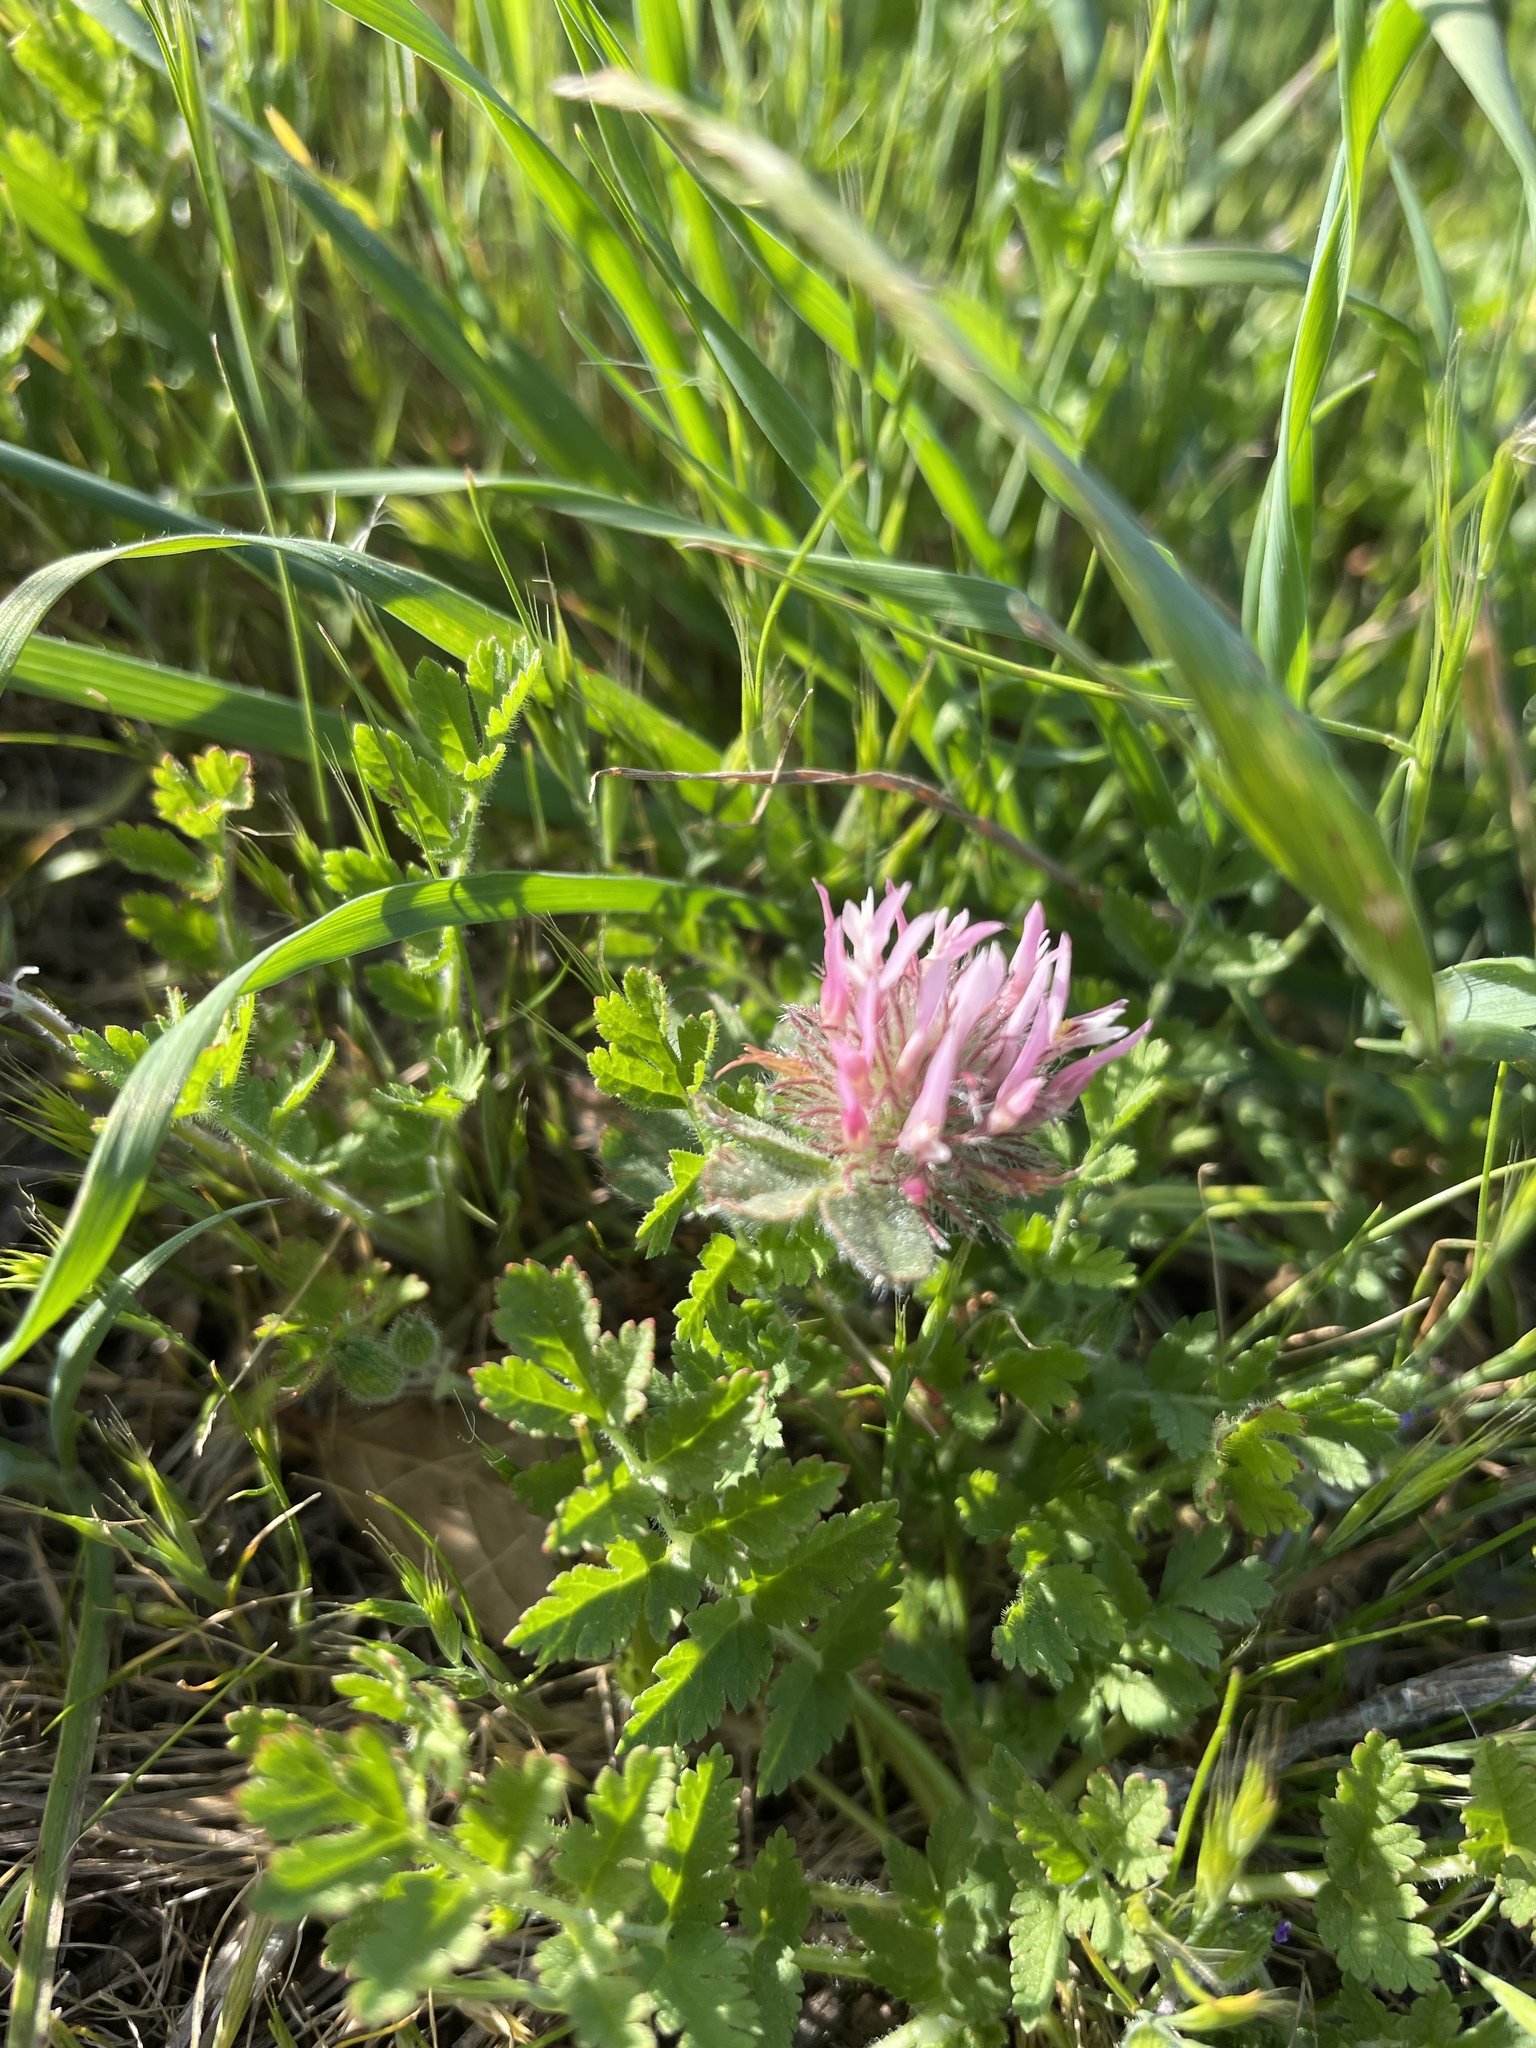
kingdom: Plantae
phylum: Tracheophyta
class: Magnoliopsida
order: Fabales
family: Fabaceae
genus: Trifolium
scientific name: Trifolium hirtum
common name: Rose clover
